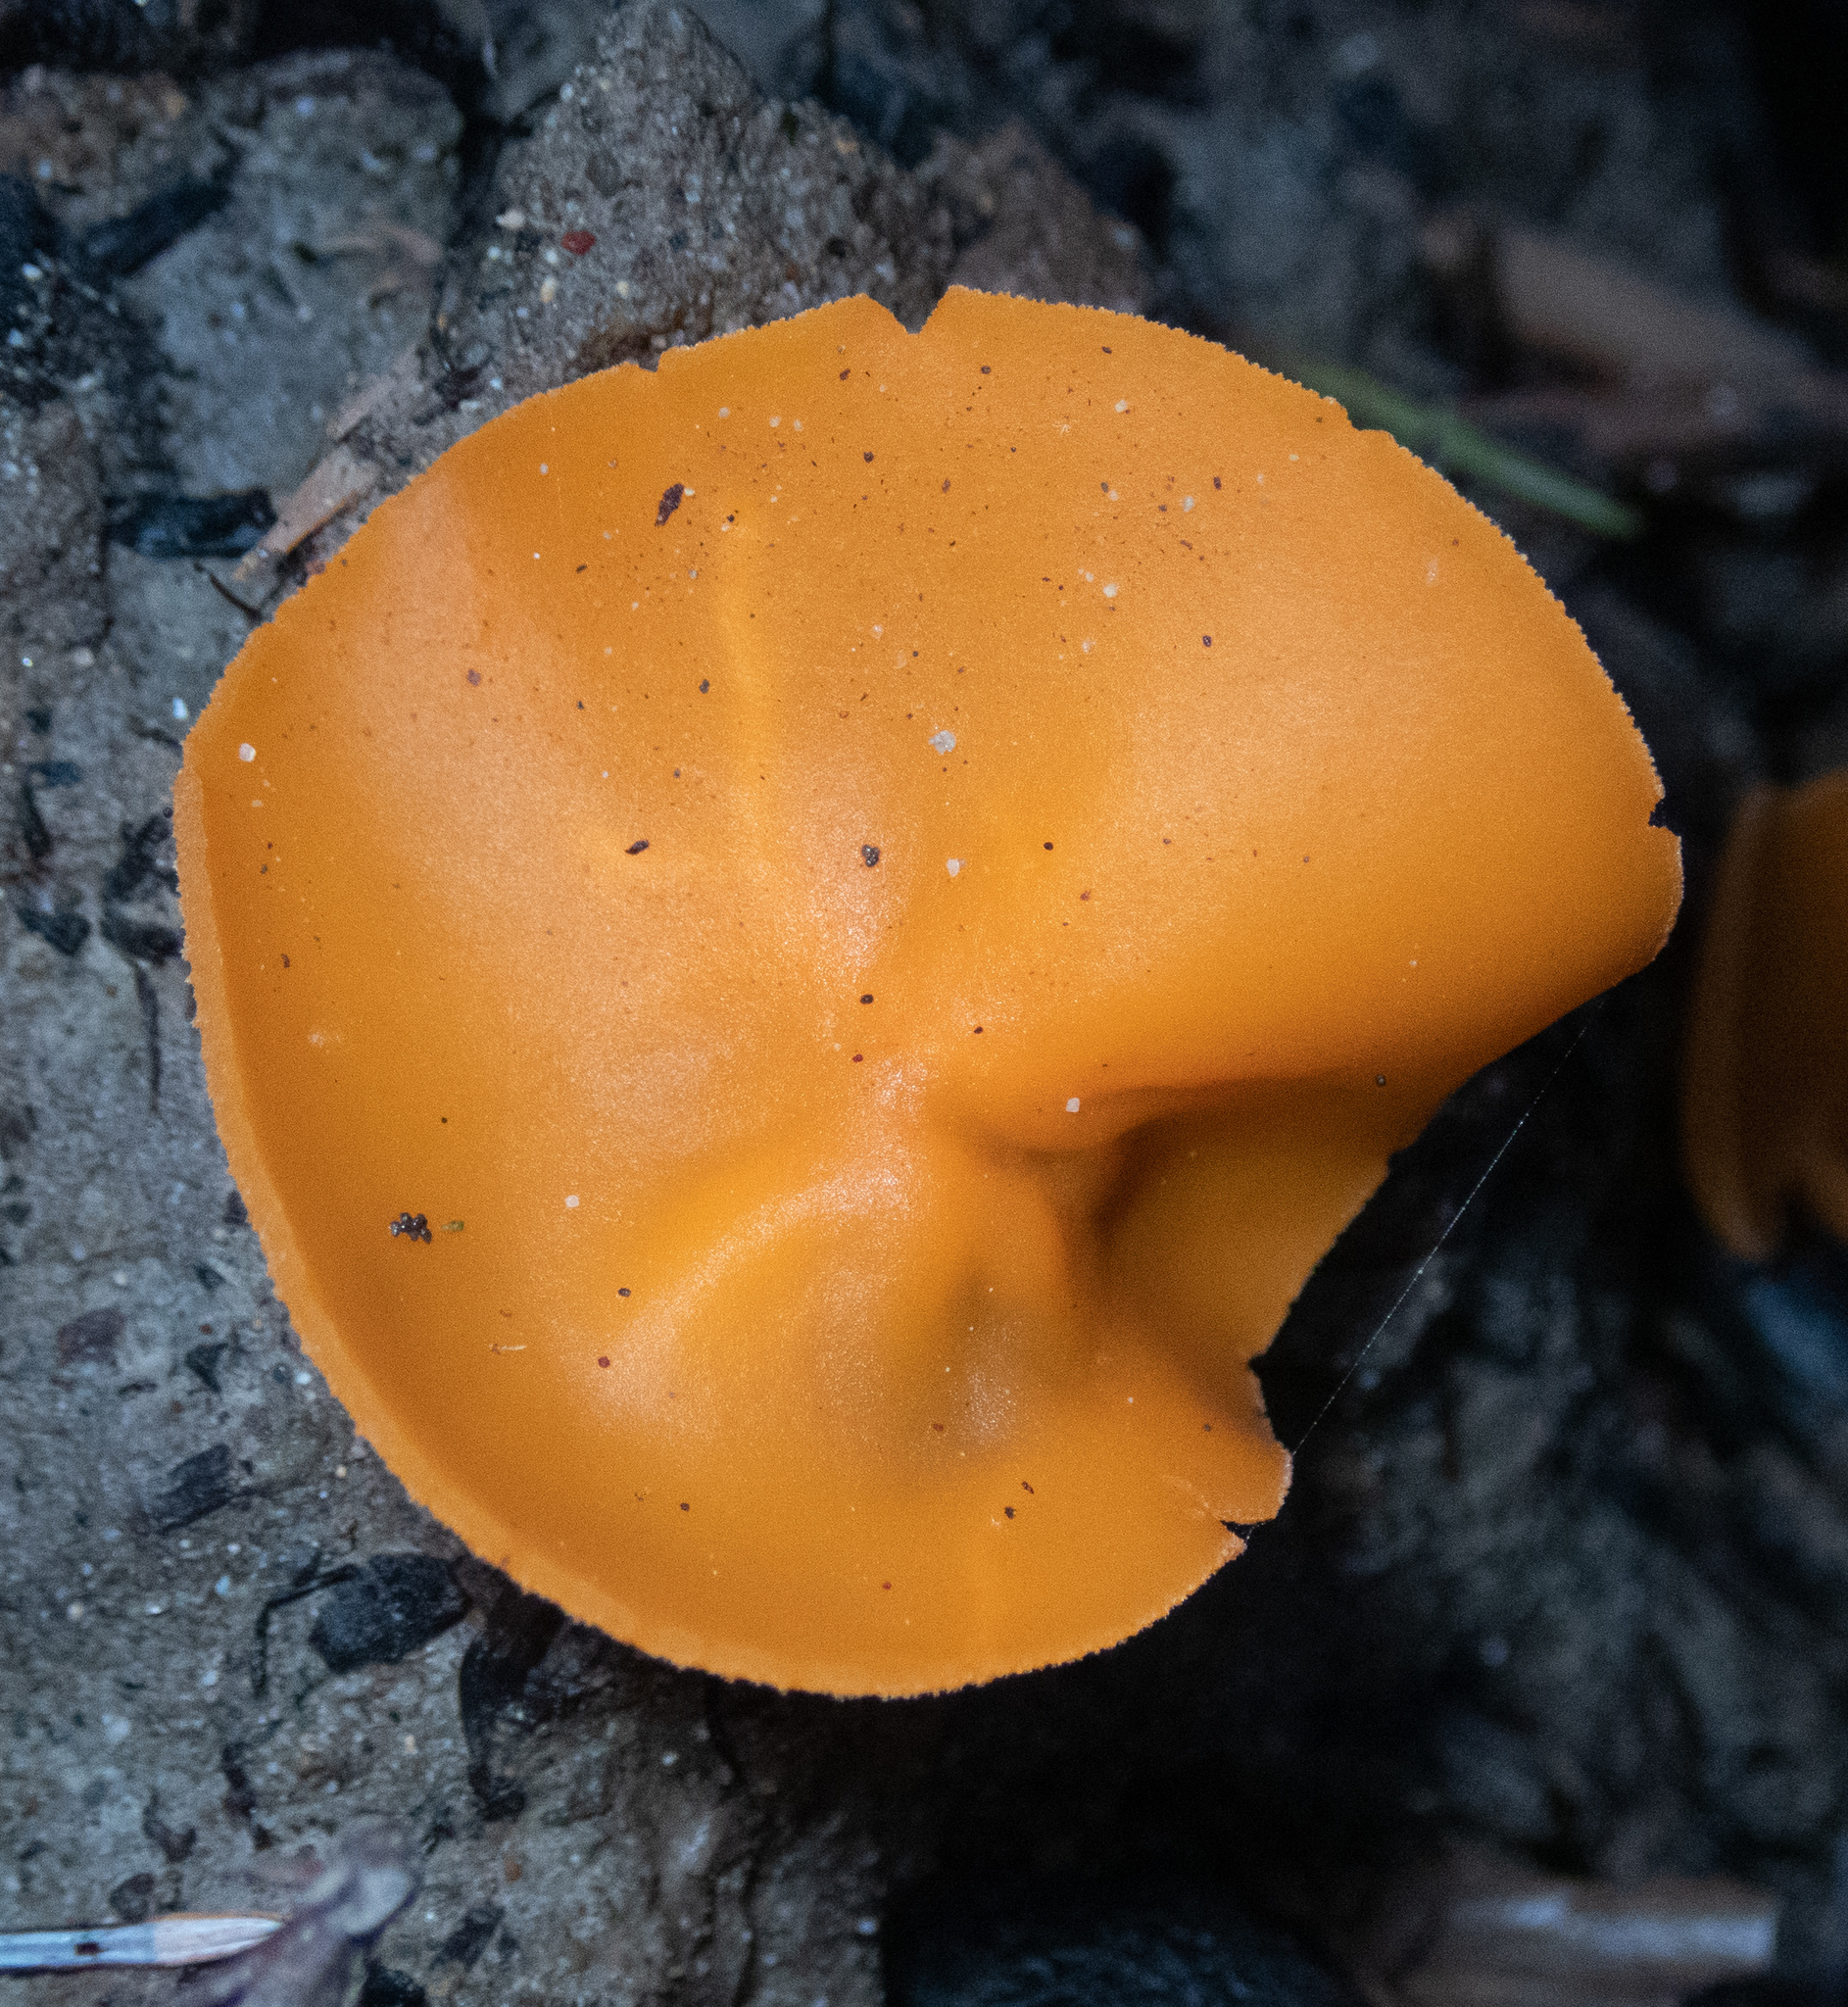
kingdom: Fungi
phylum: Ascomycota
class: Pezizomycetes
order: Pezizales
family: Pyronemataceae
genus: Aleuria
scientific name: Aleuria aurantia
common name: Orange peel fungus
